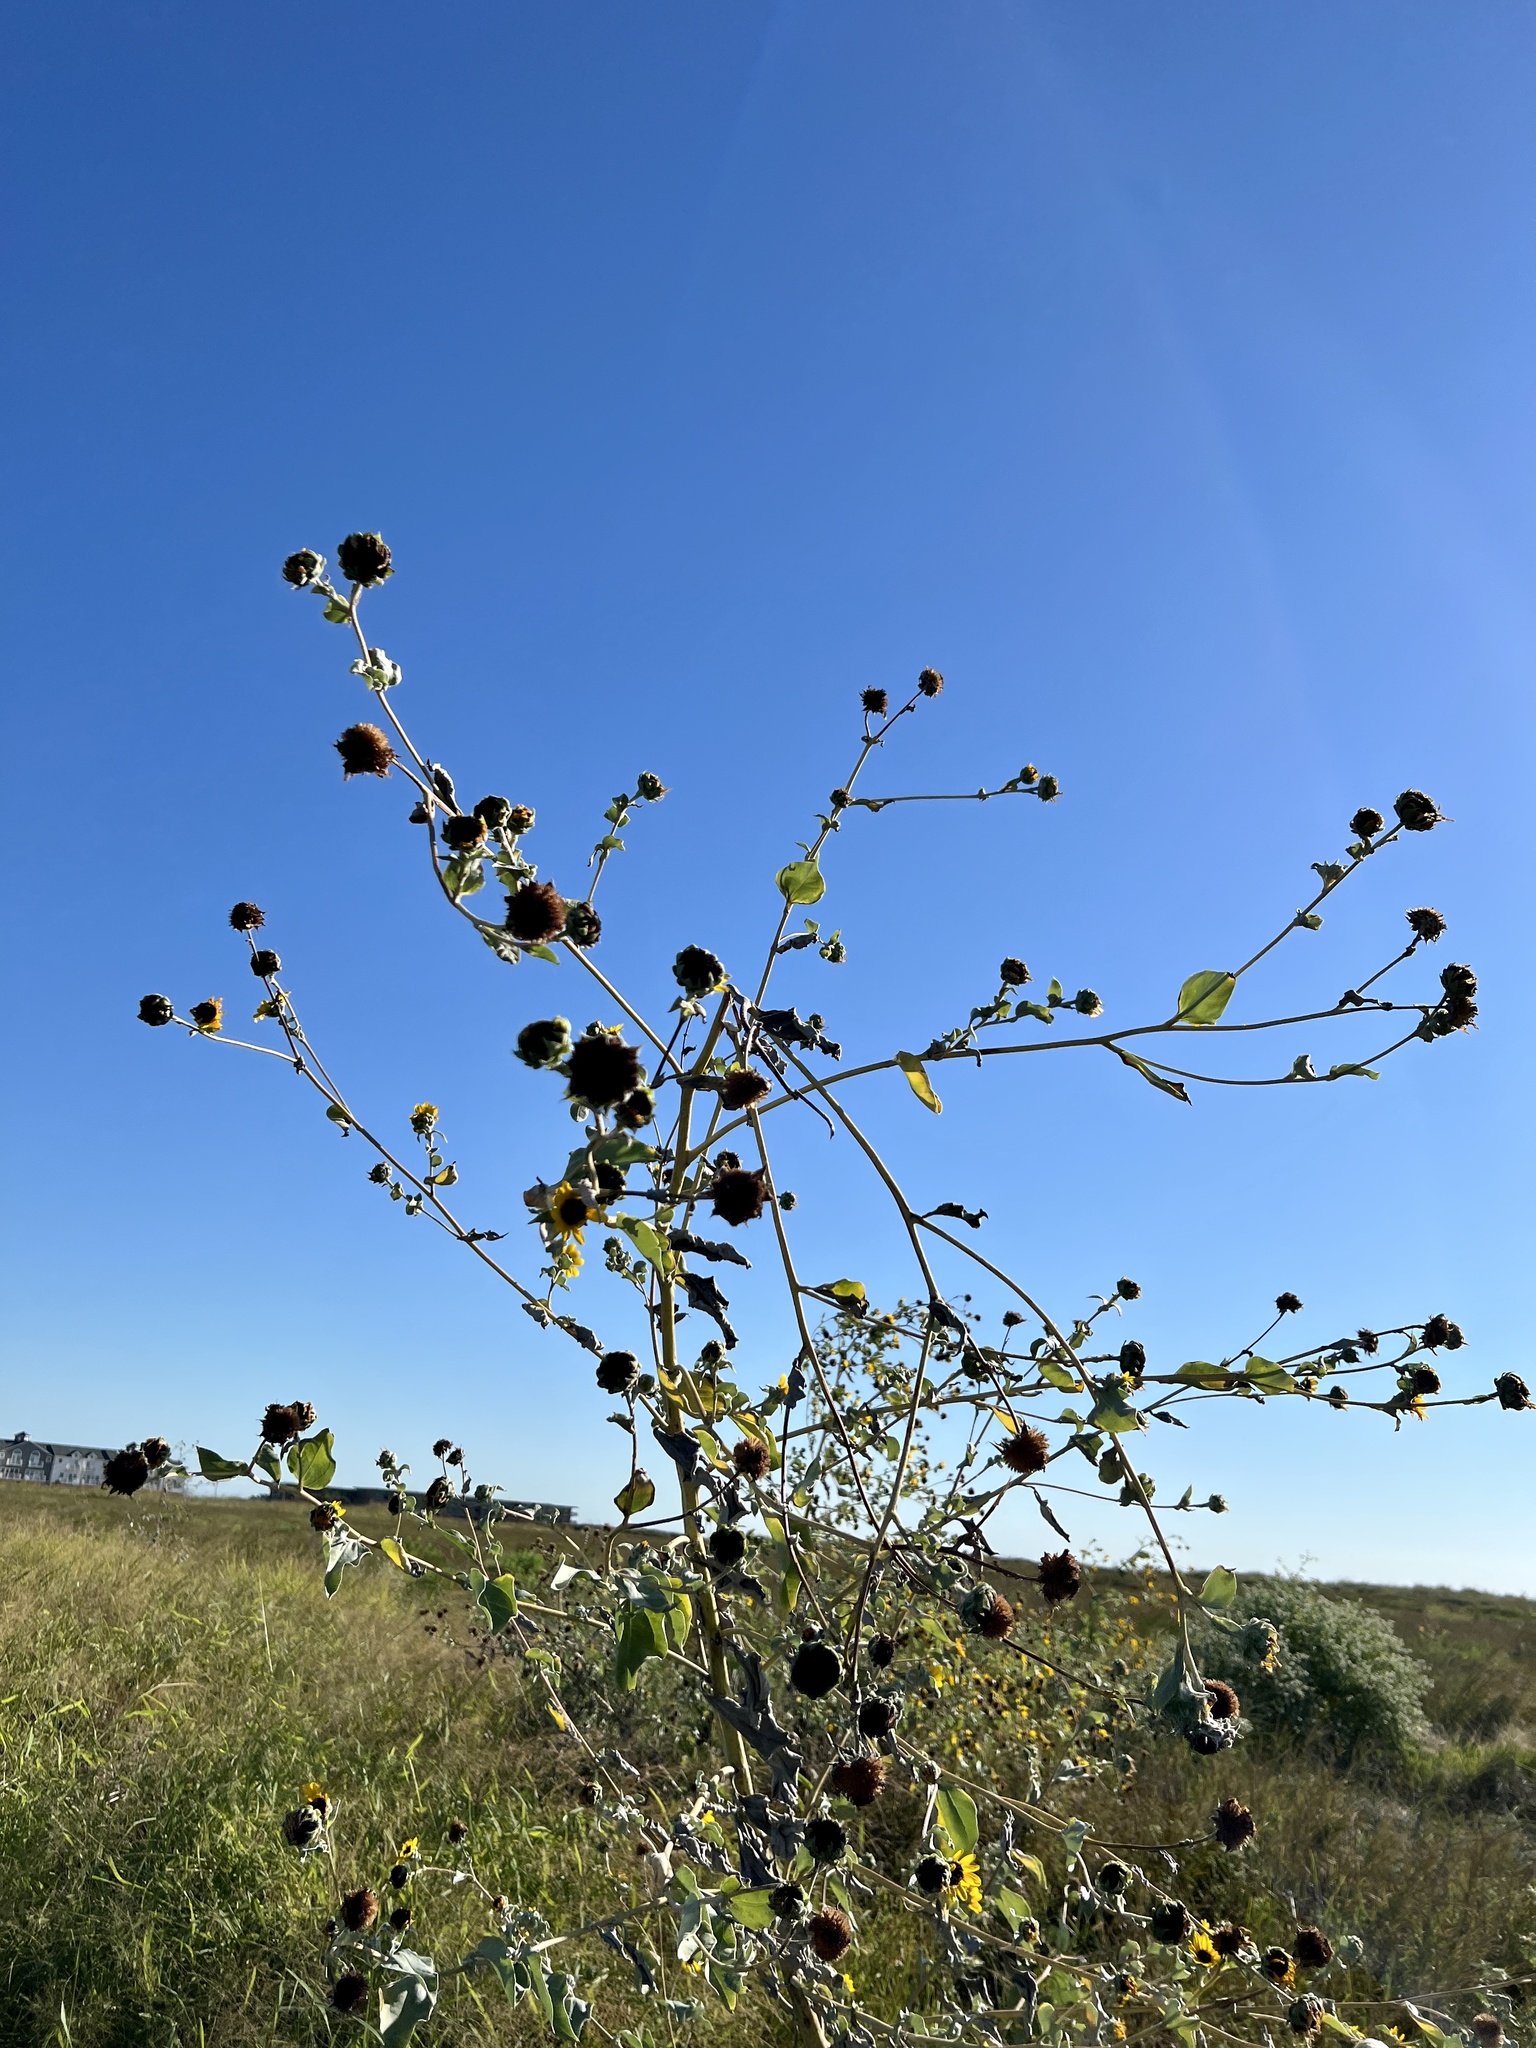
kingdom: Plantae
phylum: Tracheophyta
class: Magnoliopsida
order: Asterales
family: Asteraceae
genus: Helianthus
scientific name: Helianthus argophyllus
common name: Silverleaf sunflower
